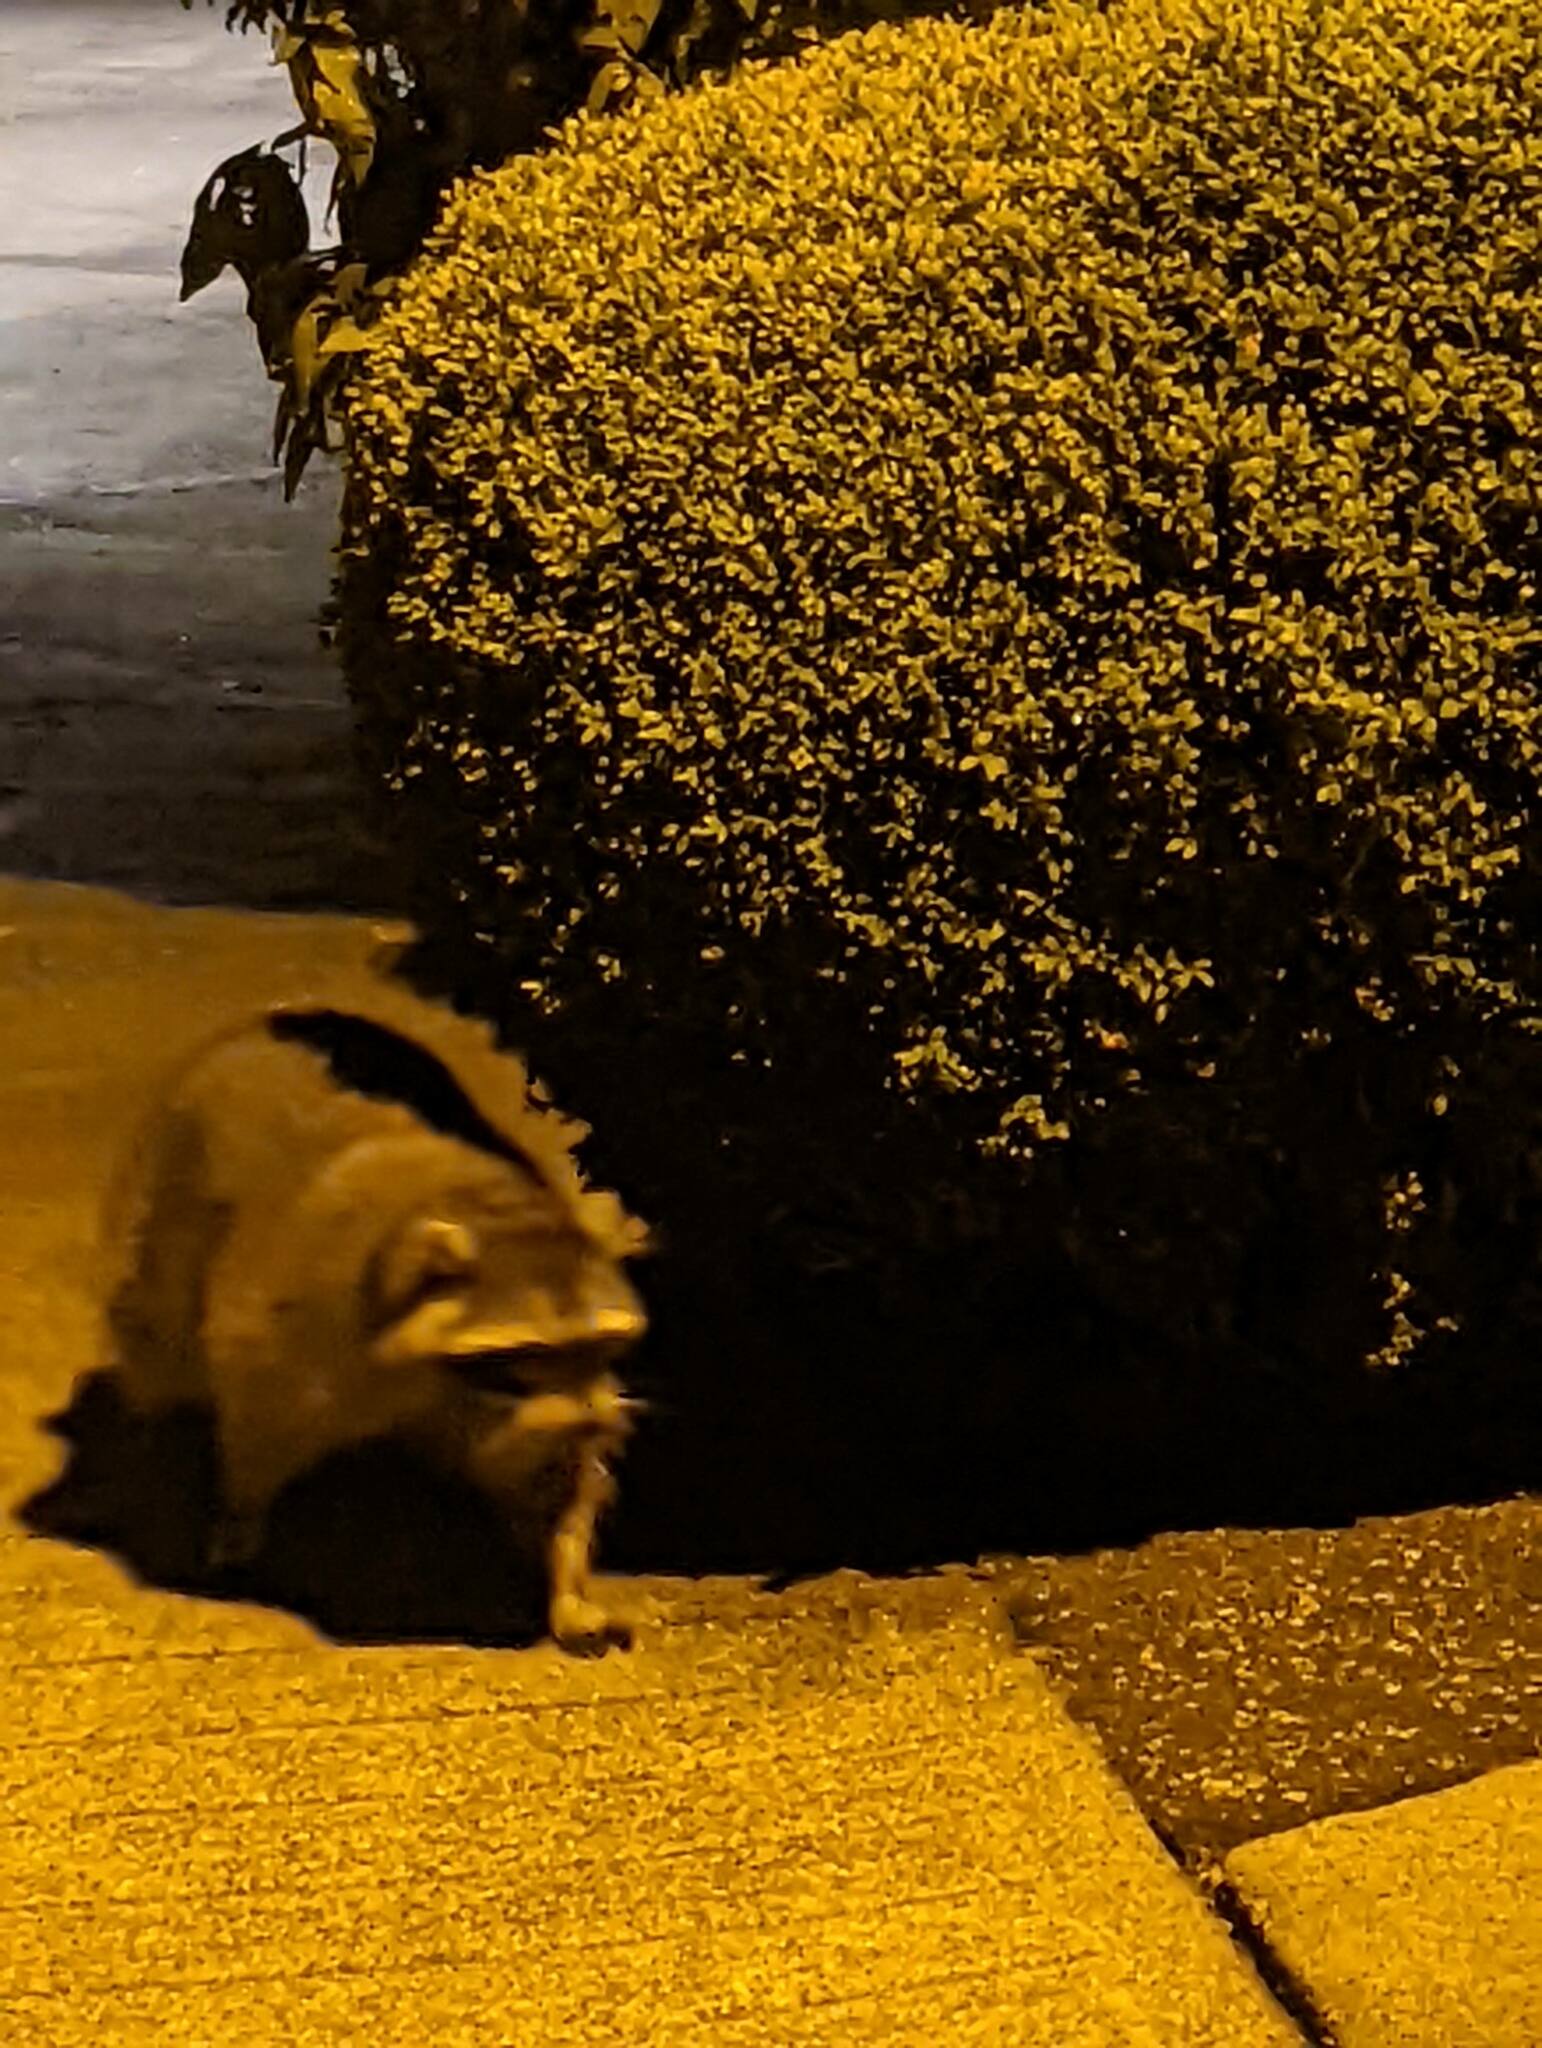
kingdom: Animalia
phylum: Chordata
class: Mammalia
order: Carnivora
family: Procyonidae
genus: Procyon
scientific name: Procyon lotor
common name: Raccoon
